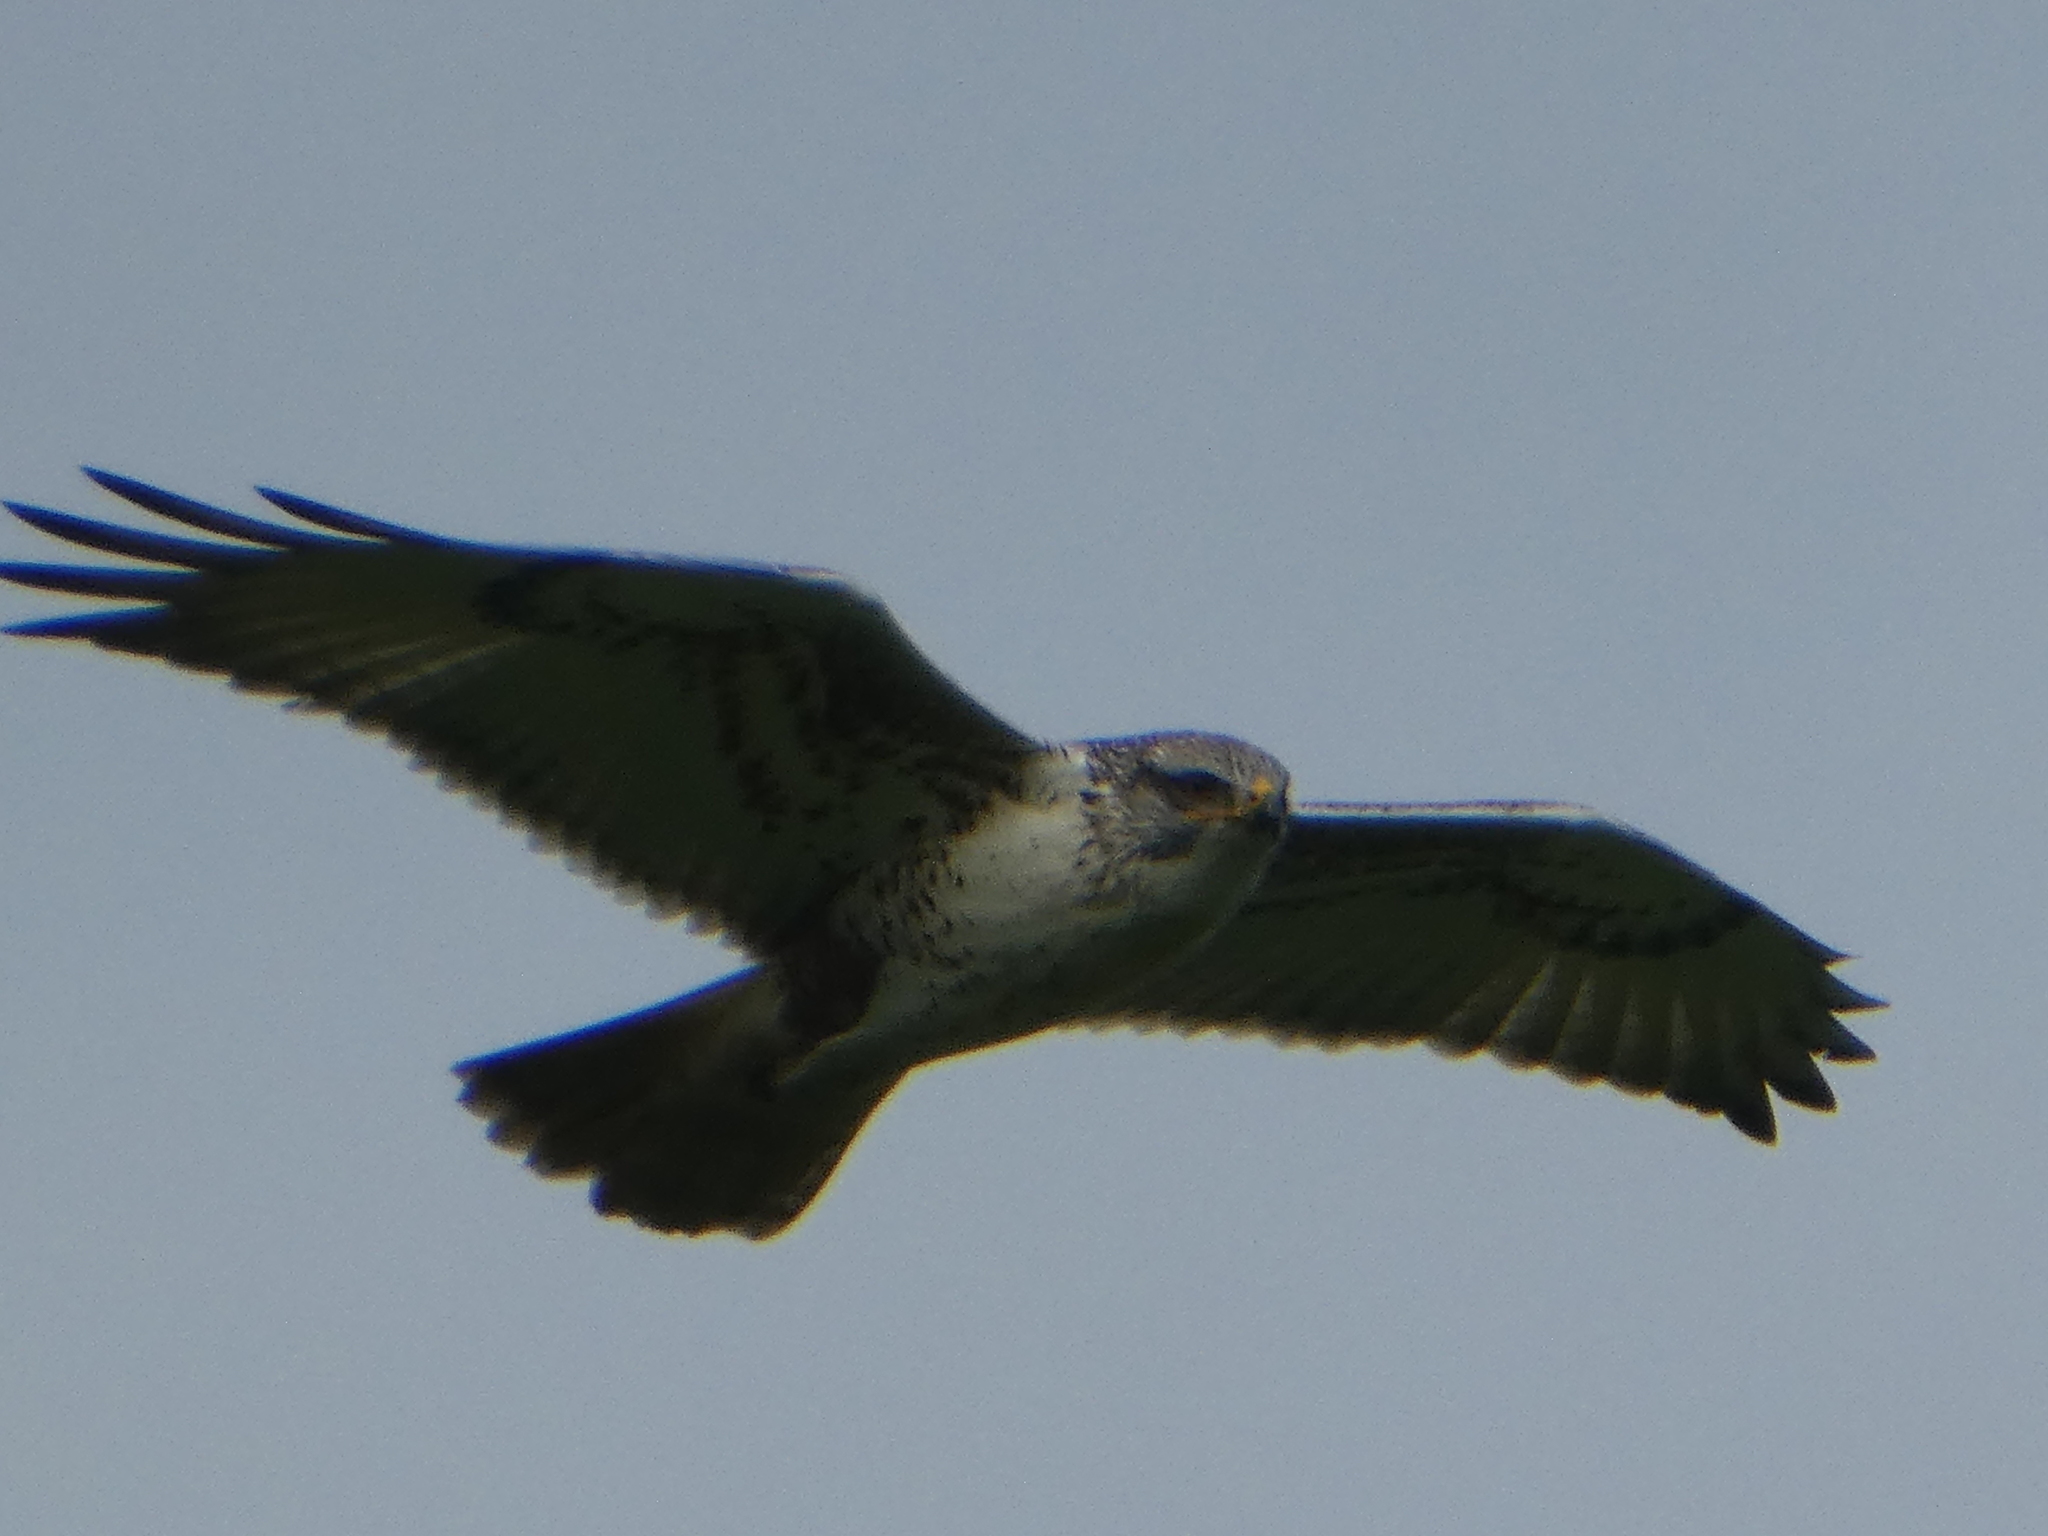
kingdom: Animalia
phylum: Chordata
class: Aves
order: Accipitriformes
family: Accipitridae
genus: Buteo
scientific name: Buteo regalis
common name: Ferruginous hawk
